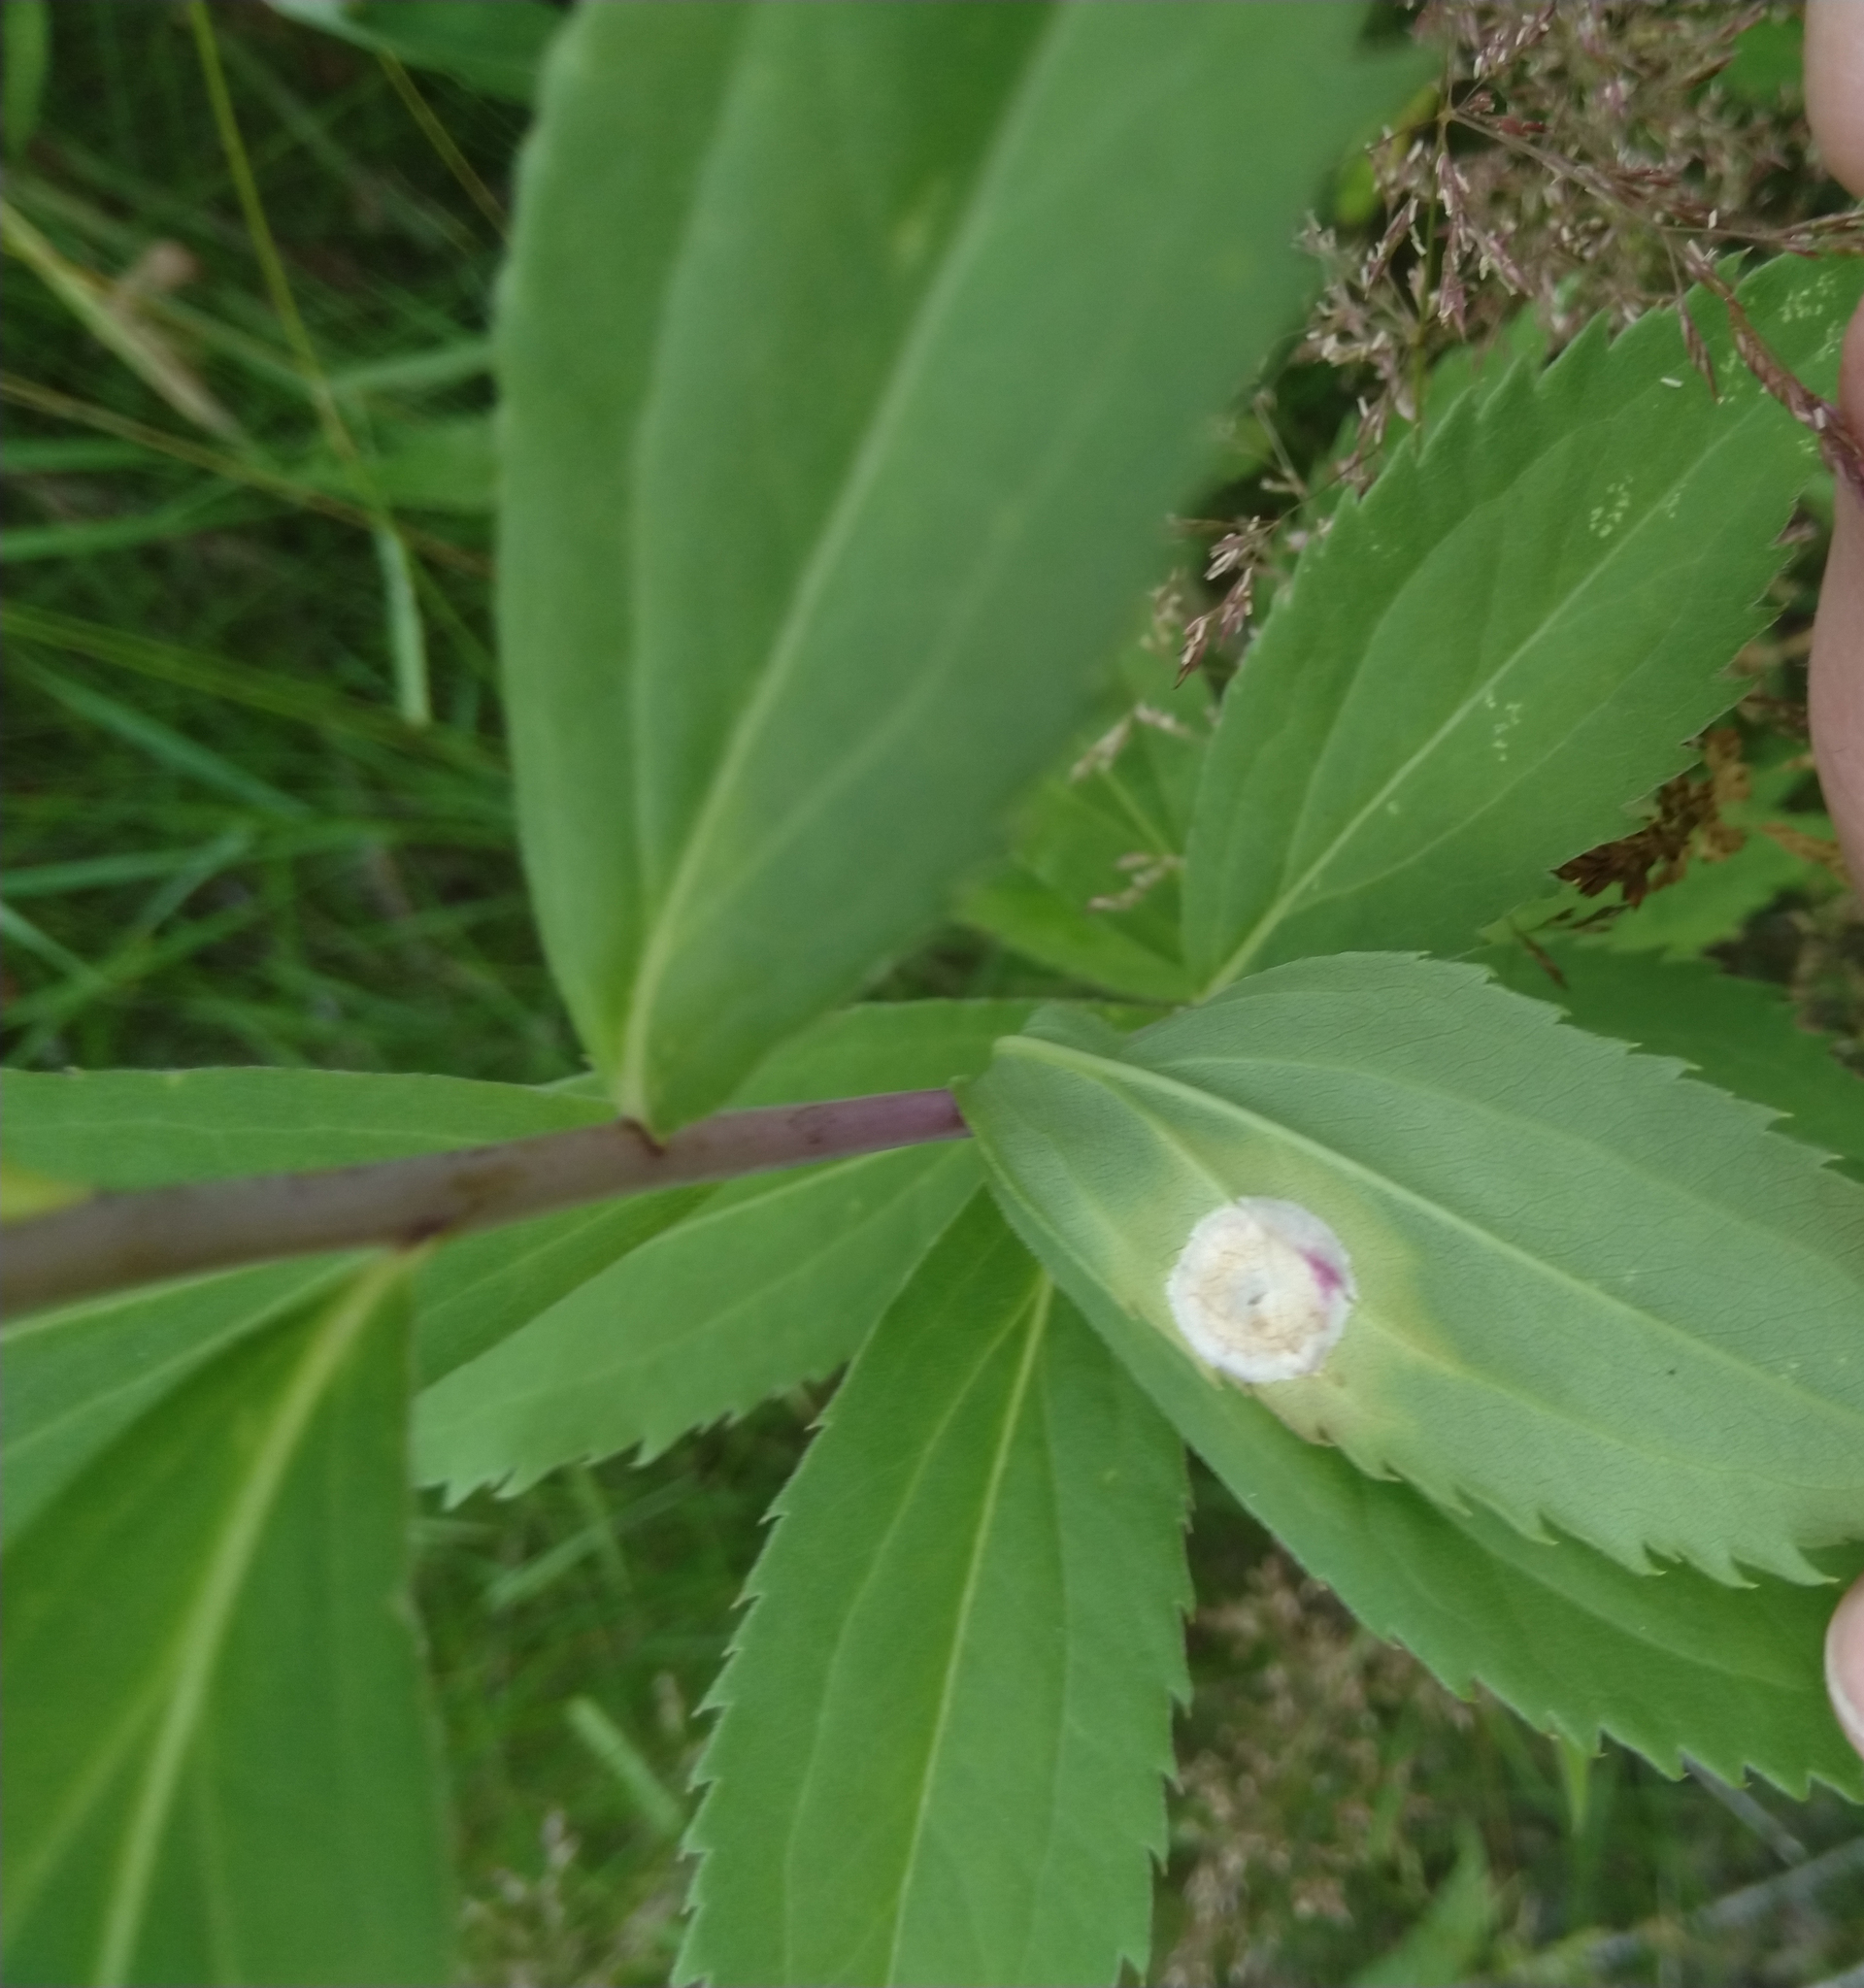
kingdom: Fungi
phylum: Ascomycota
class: Dothideomycetes
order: Botryosphaeriales
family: Botryosphaeriaceae
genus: Botryosphaeria
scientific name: Botryosphaeria dothidea
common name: Asteromyia gall midge fungus
